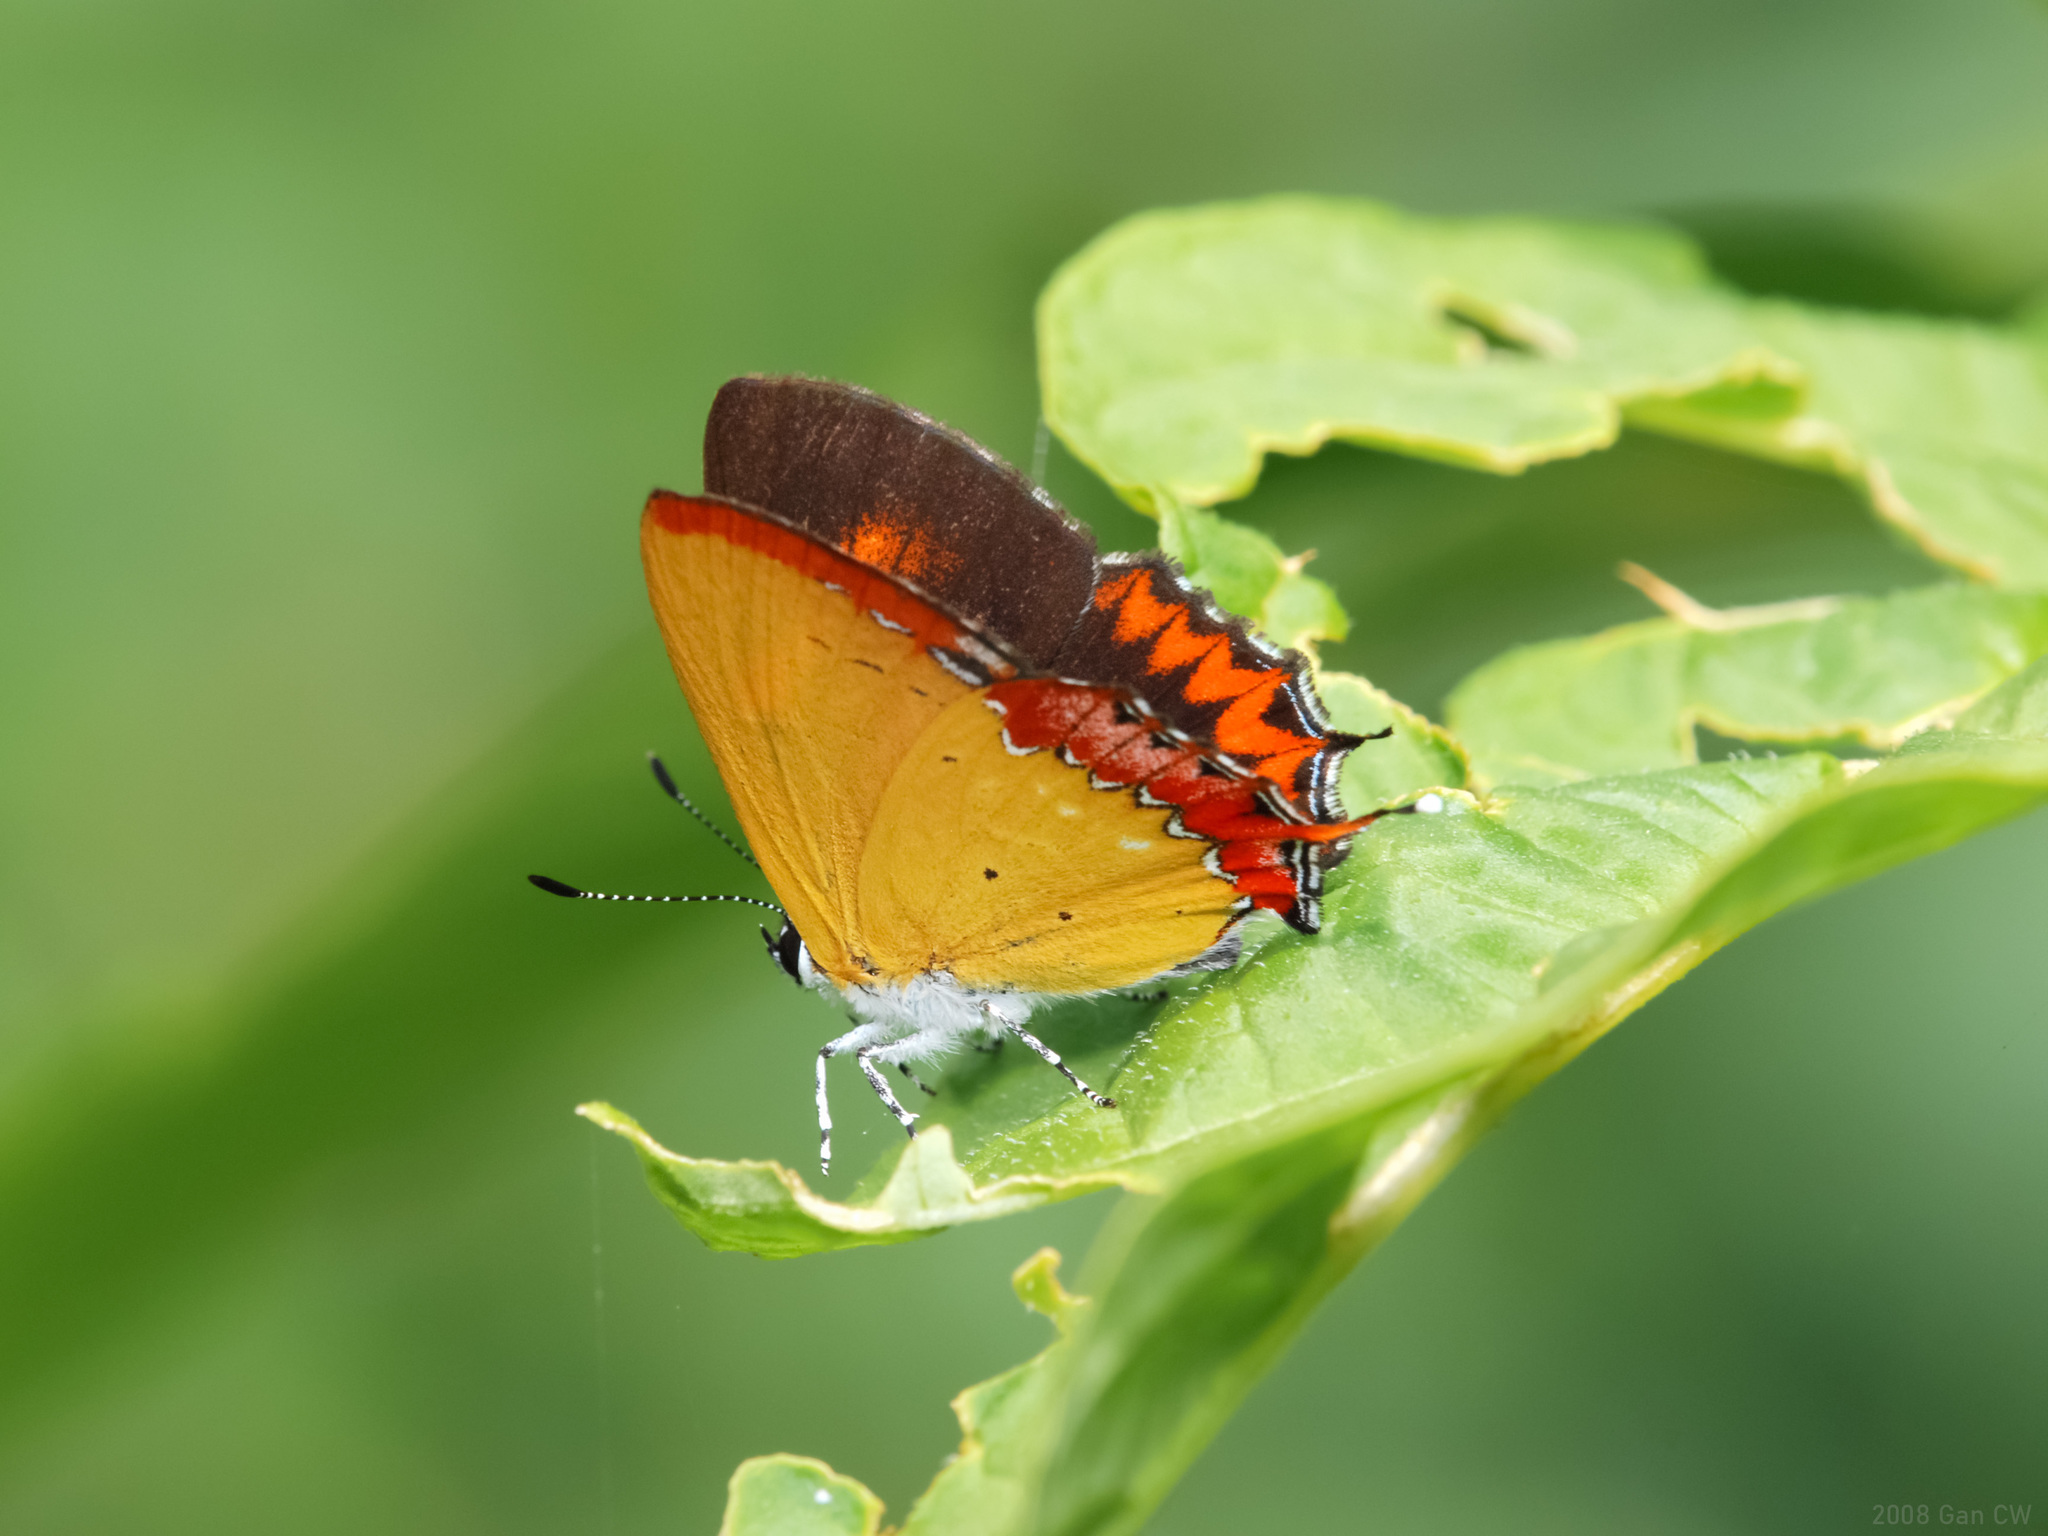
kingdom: Animalia
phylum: Arthropoda
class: Insecta
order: Lepidoptera
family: Lycaenidae
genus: Heliophorus
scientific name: Heliophorus epicles
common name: Purple sapphire
